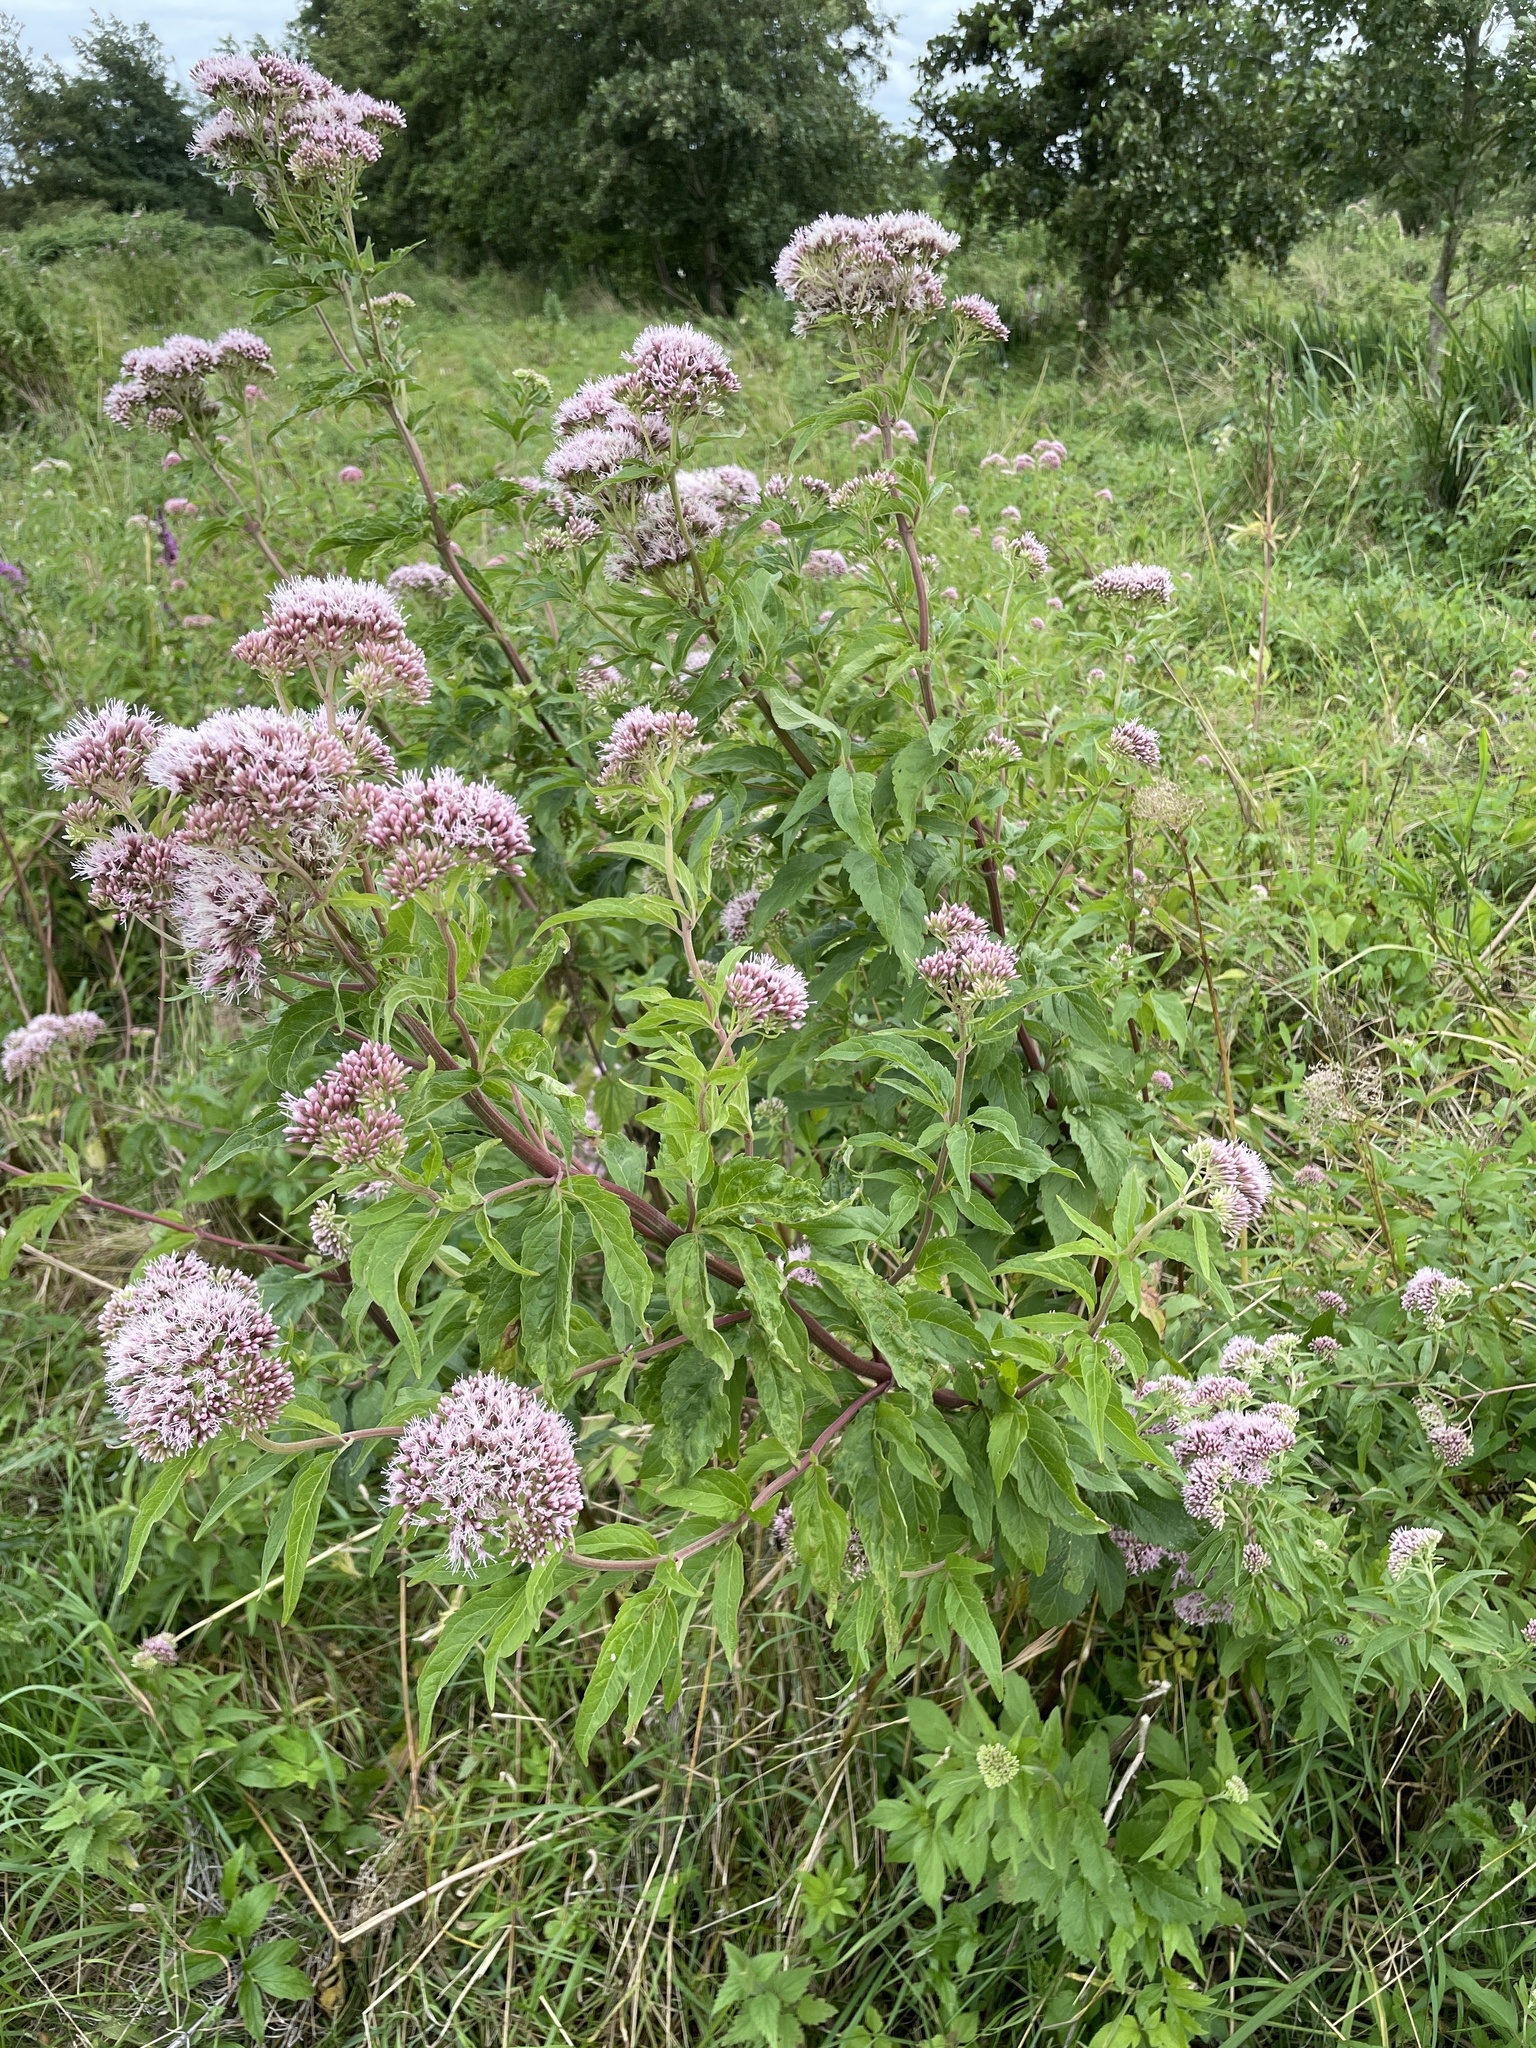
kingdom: Plantae
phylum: Tracheophyta
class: Magnoliopsida
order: Asterales
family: Asteraceae
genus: Eupatorium
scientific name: Eupatorium cannabinum
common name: Hemp-agrimony
